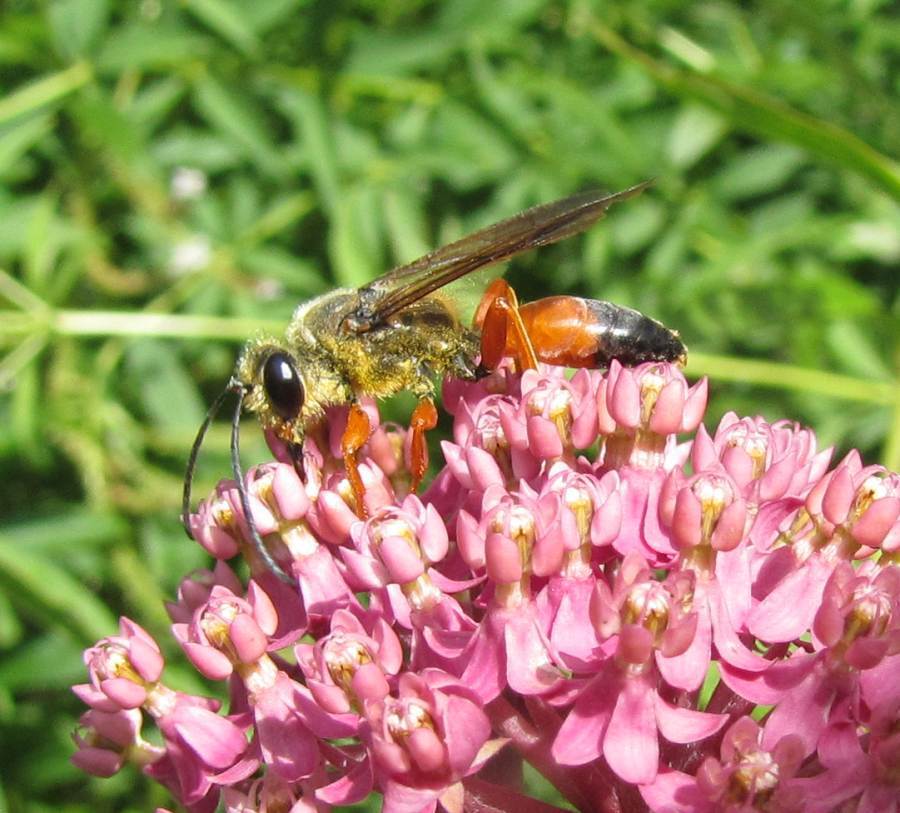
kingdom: Animalia
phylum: Arthropoda
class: Insecta
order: Hymenoptera
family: Sphecidae
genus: Sphex
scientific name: Sphex ichneumoneus
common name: Great golden digger wasp
